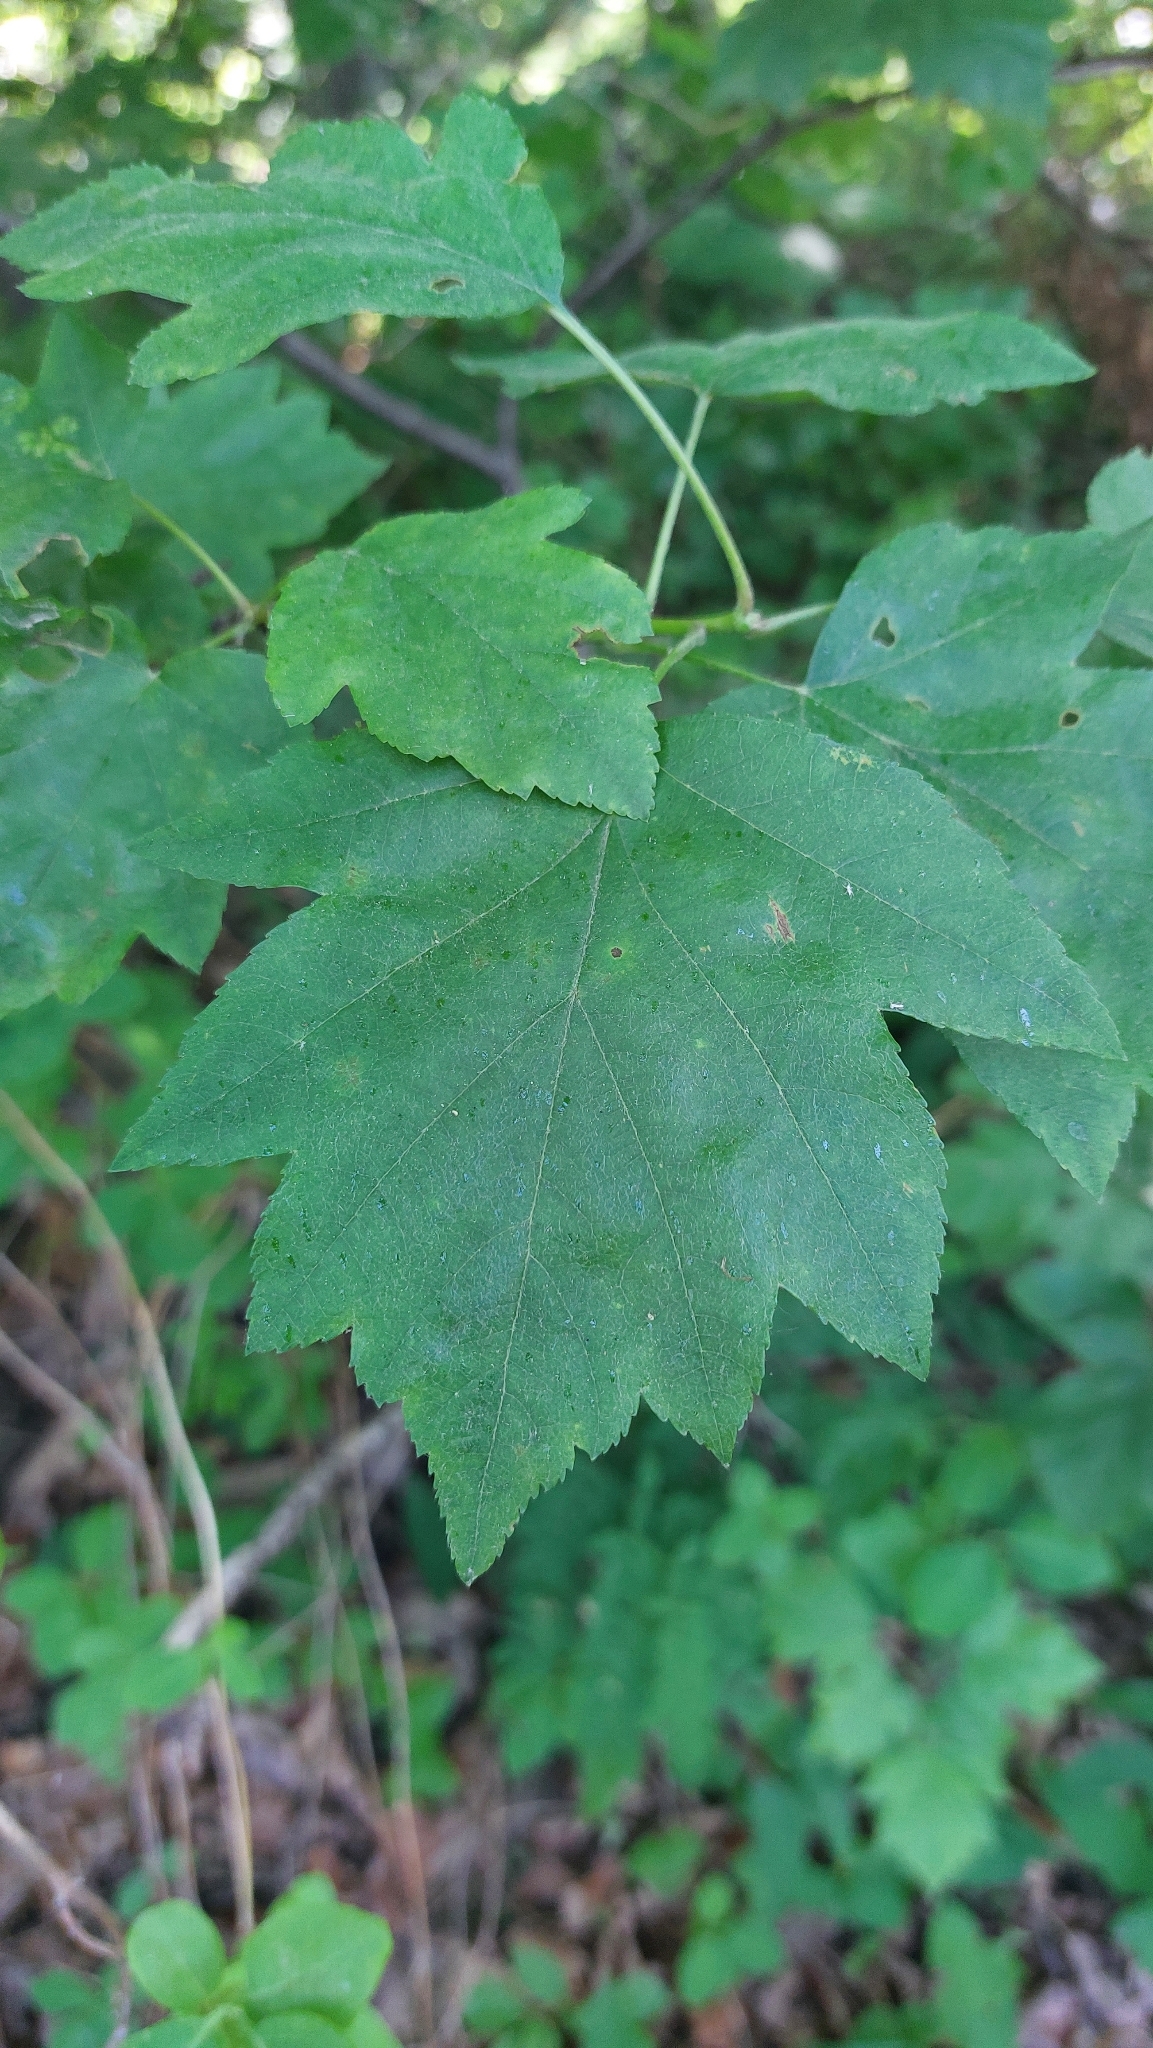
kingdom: Plantae
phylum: Tracheophyta
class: Magnoliopsida
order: Rosales
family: Rosaceae
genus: Torminalis
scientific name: Torminalis glaberrima
